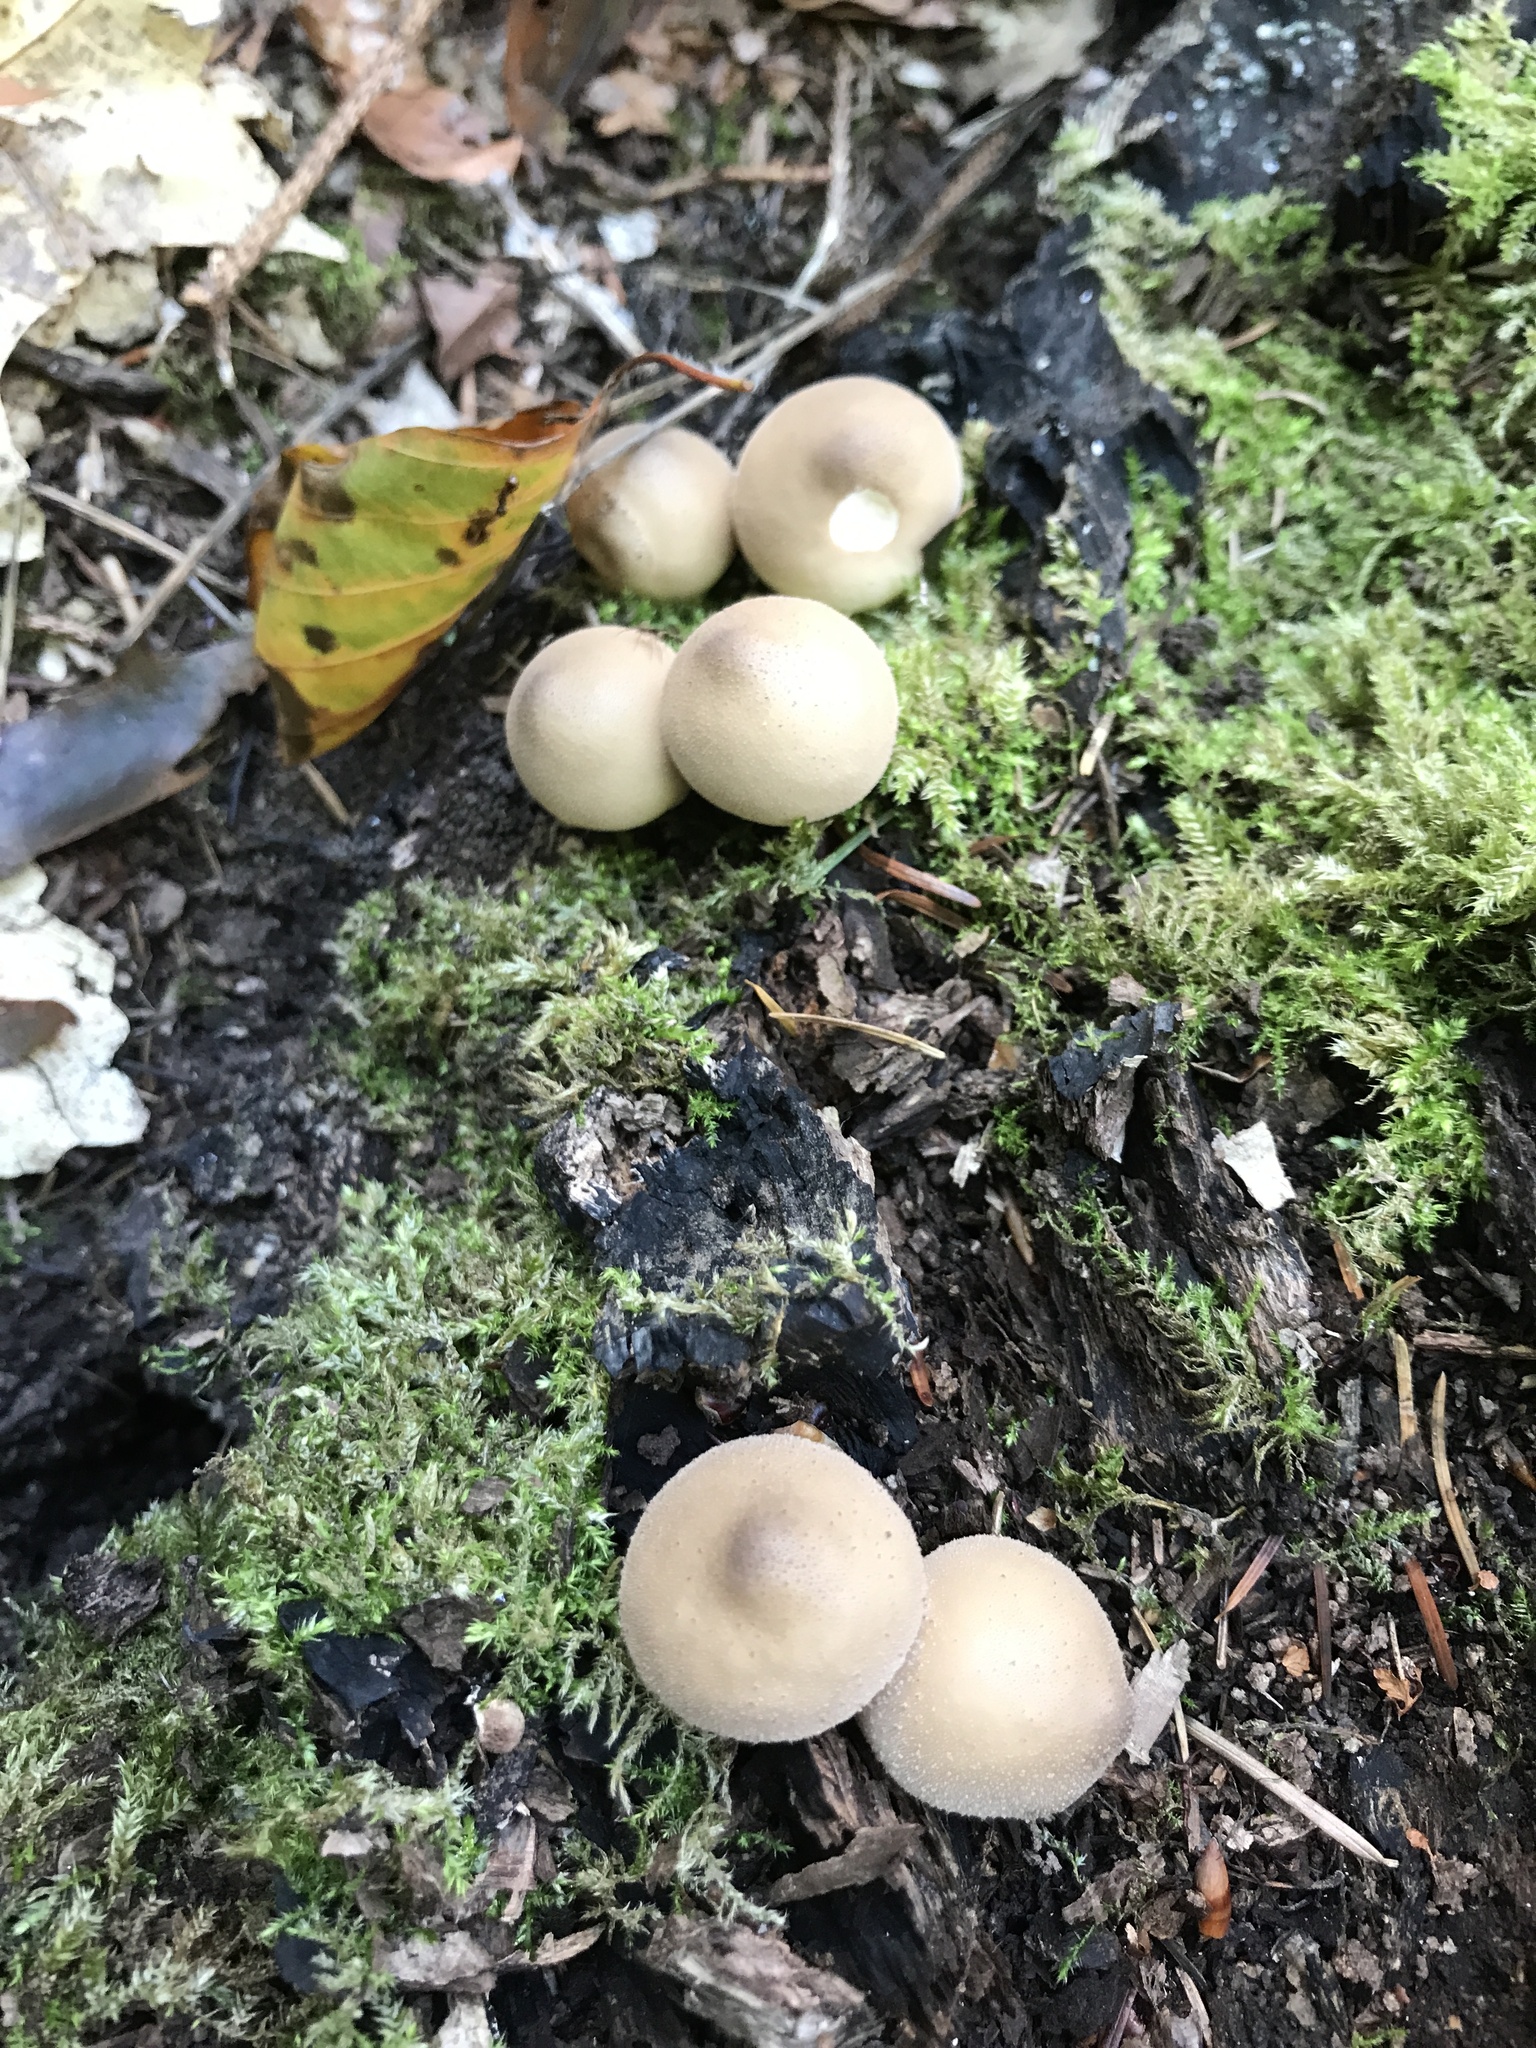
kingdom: Fungi
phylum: Basidiomycota
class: Agaricomycetes
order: Agaricales
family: Lycoperdaceae
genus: Apioperdon
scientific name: Apioperdon pyriforme
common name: Pear-shaped puffball
